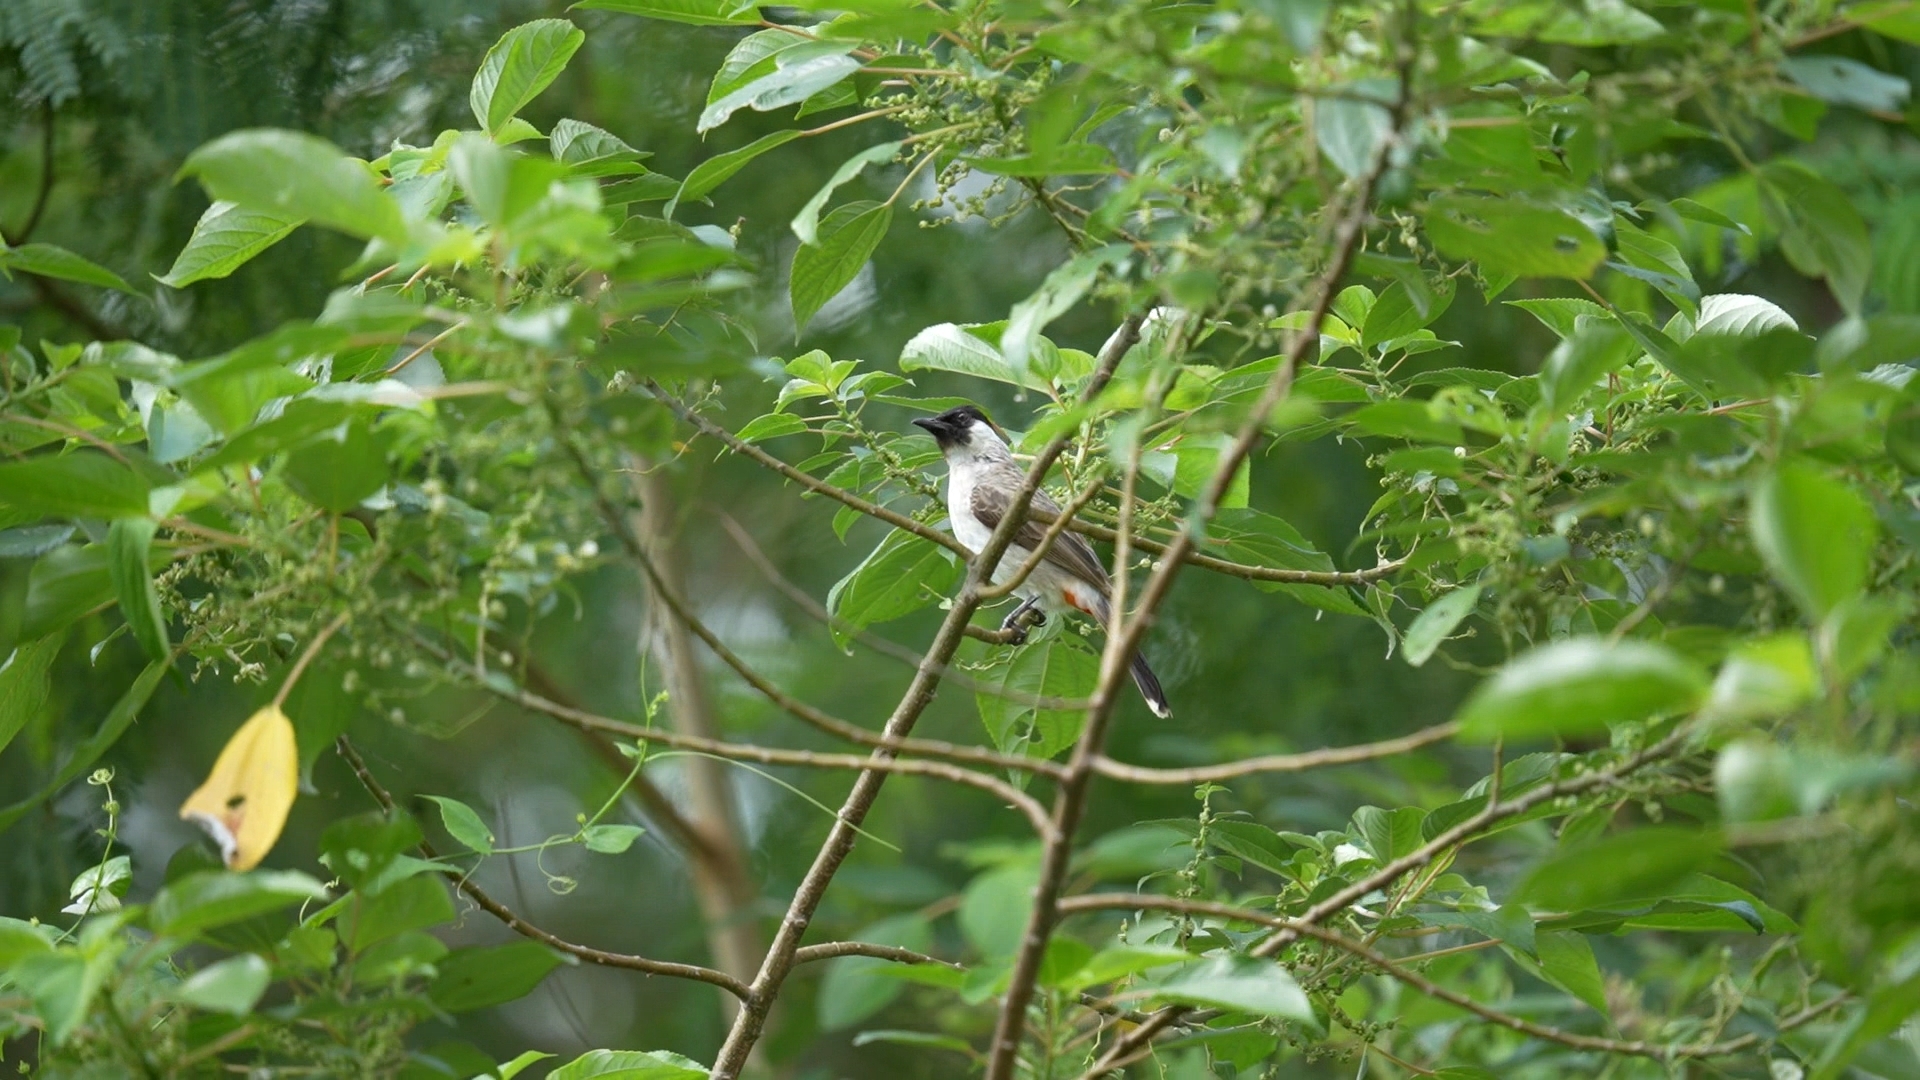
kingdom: Animalia
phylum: Chordata
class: Aves
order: Passeriformes
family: Pycnonotidae
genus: Pycnonotus
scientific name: Pycnonotus aurigaster
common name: Sooty-headed bulbul
